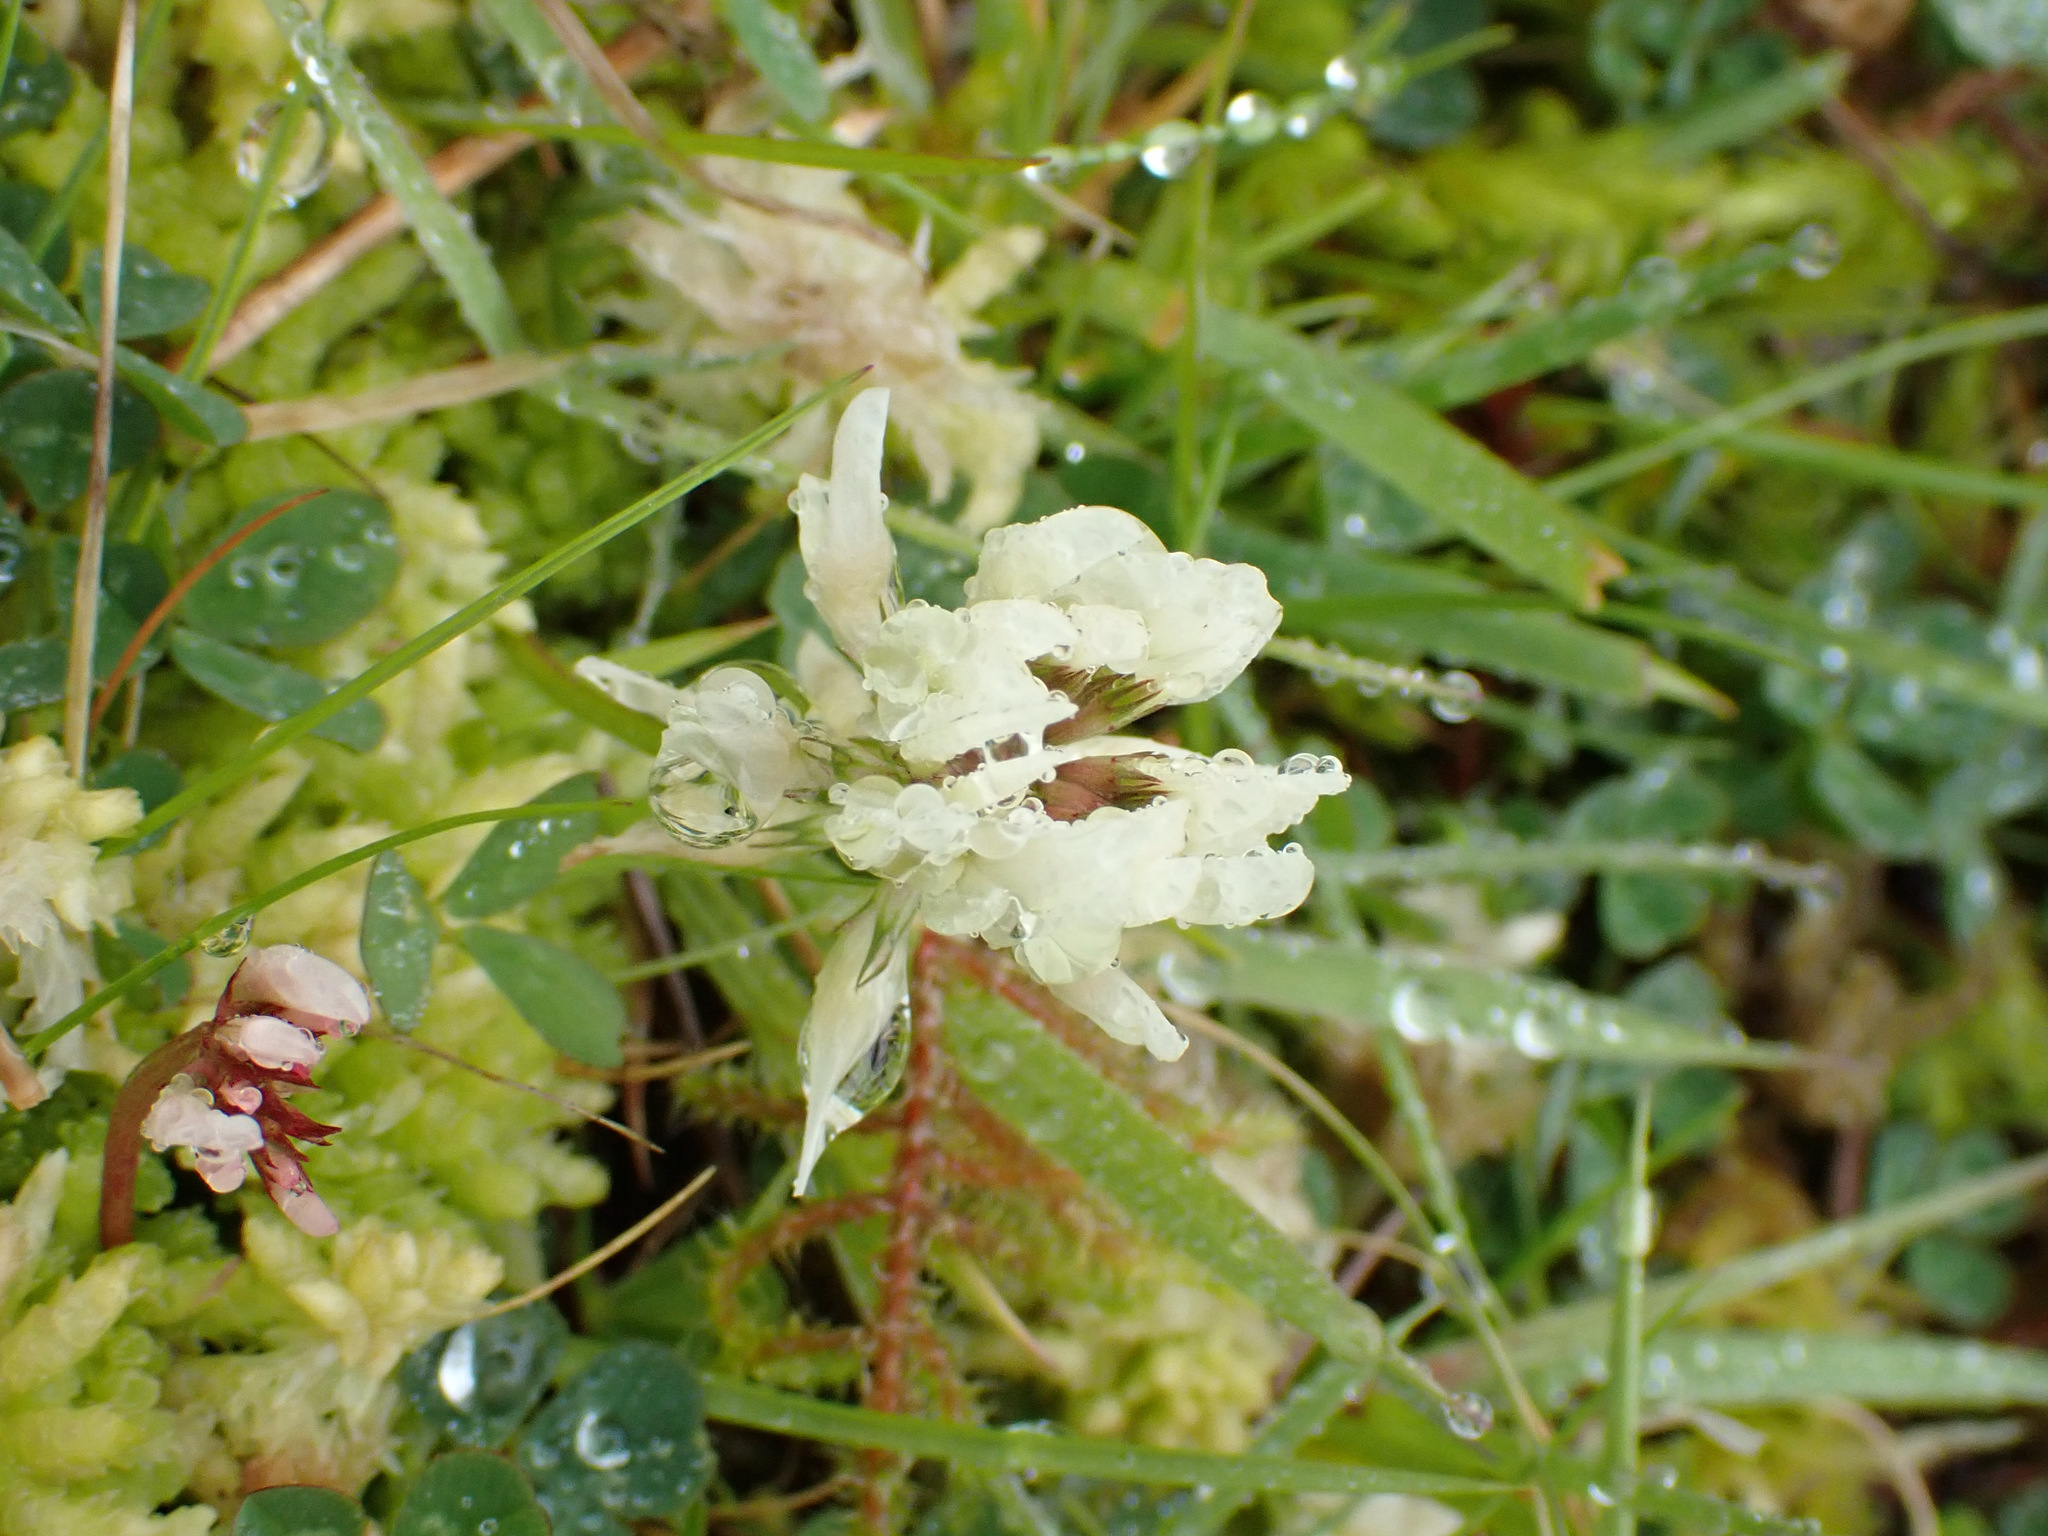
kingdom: Plantae
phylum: Tracheophyta
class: Magnoliopsida
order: Fabales
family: Fabaceae
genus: Trifolium
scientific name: Trifolium repens
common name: White clover
